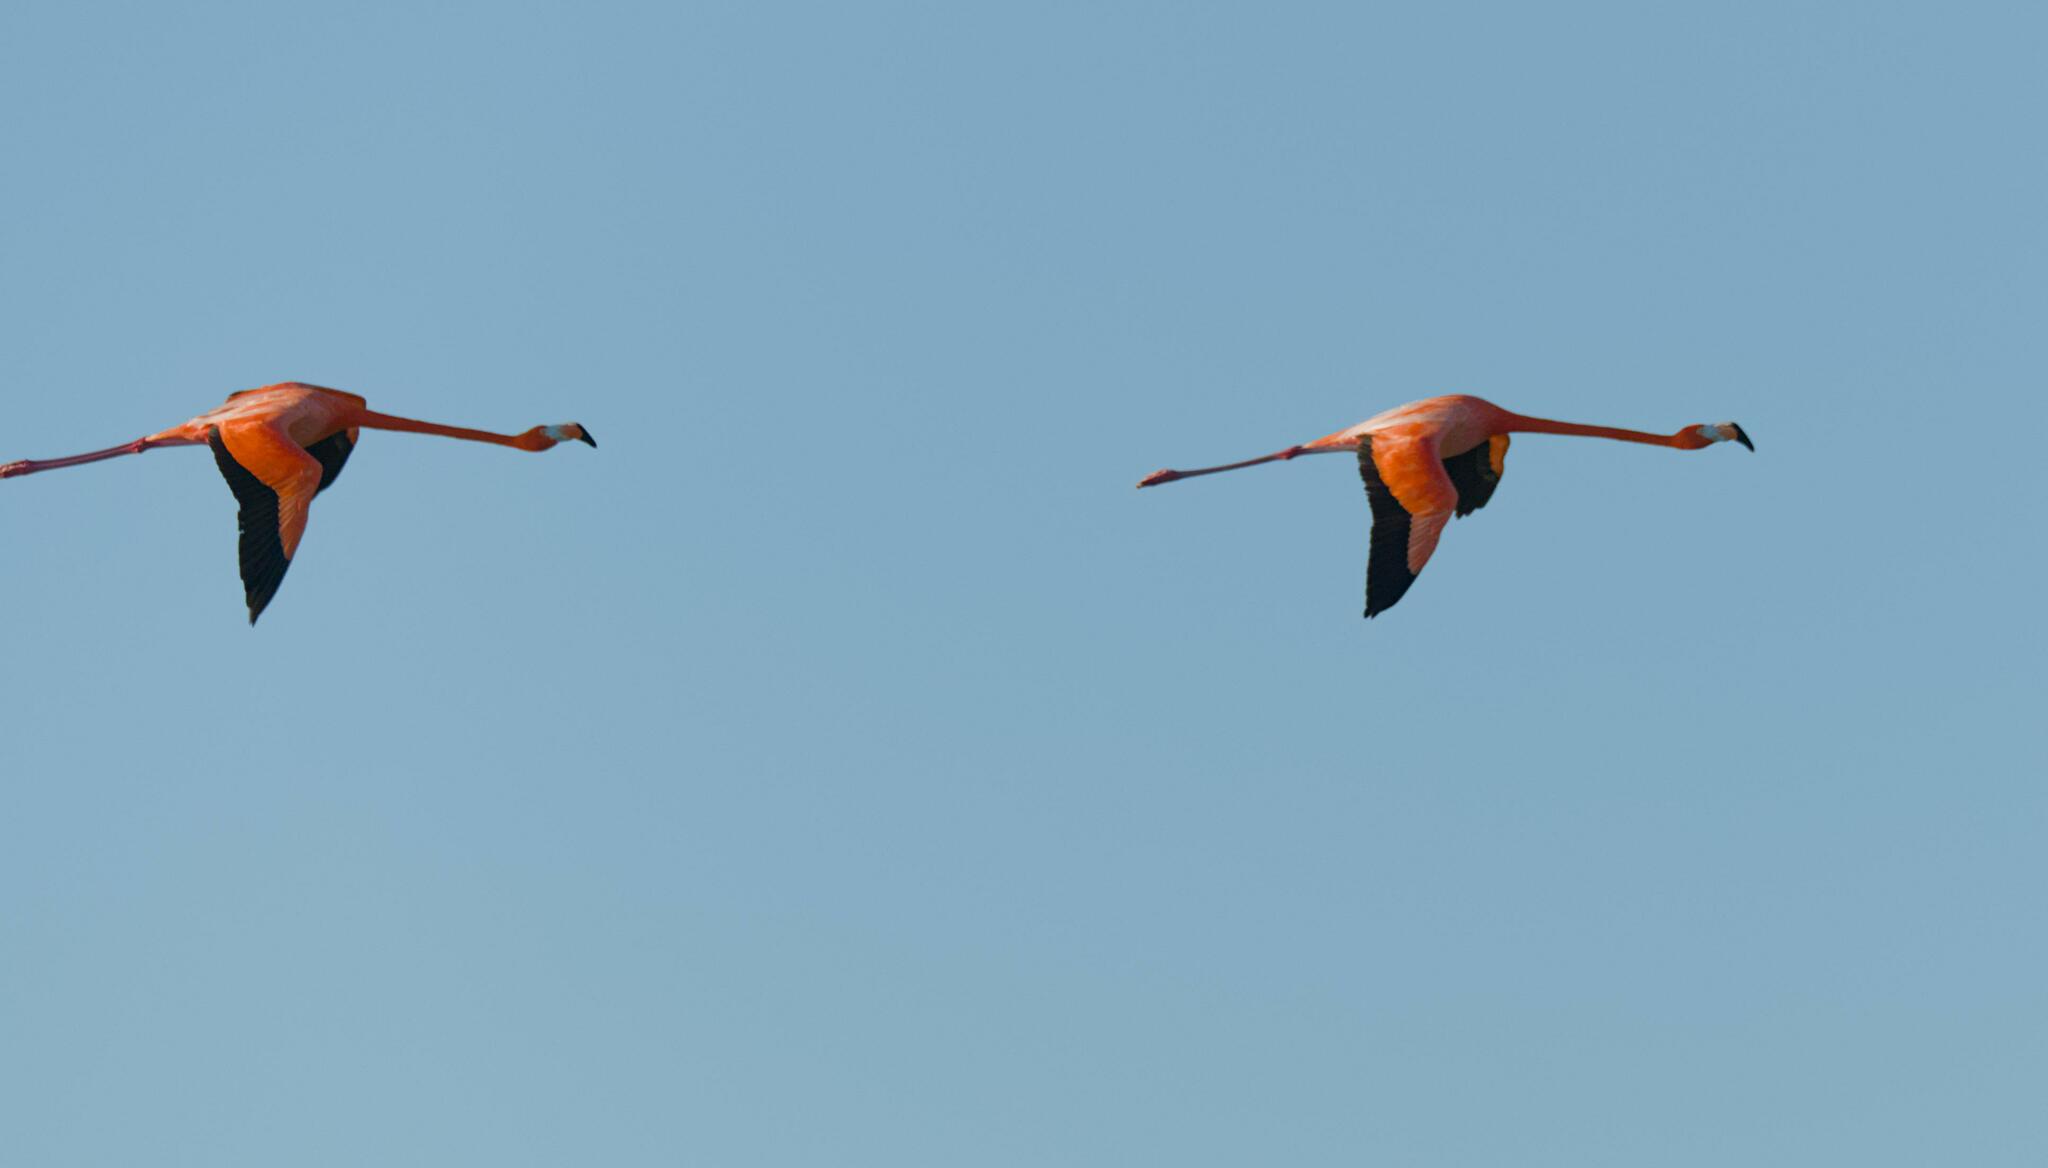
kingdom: Animalia
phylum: Chordata
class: Aves
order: Phoenicopteriformes
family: Phoenicopteridae
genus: Phoenicopterus
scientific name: Phoenicopterus ruber
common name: American flamingo
